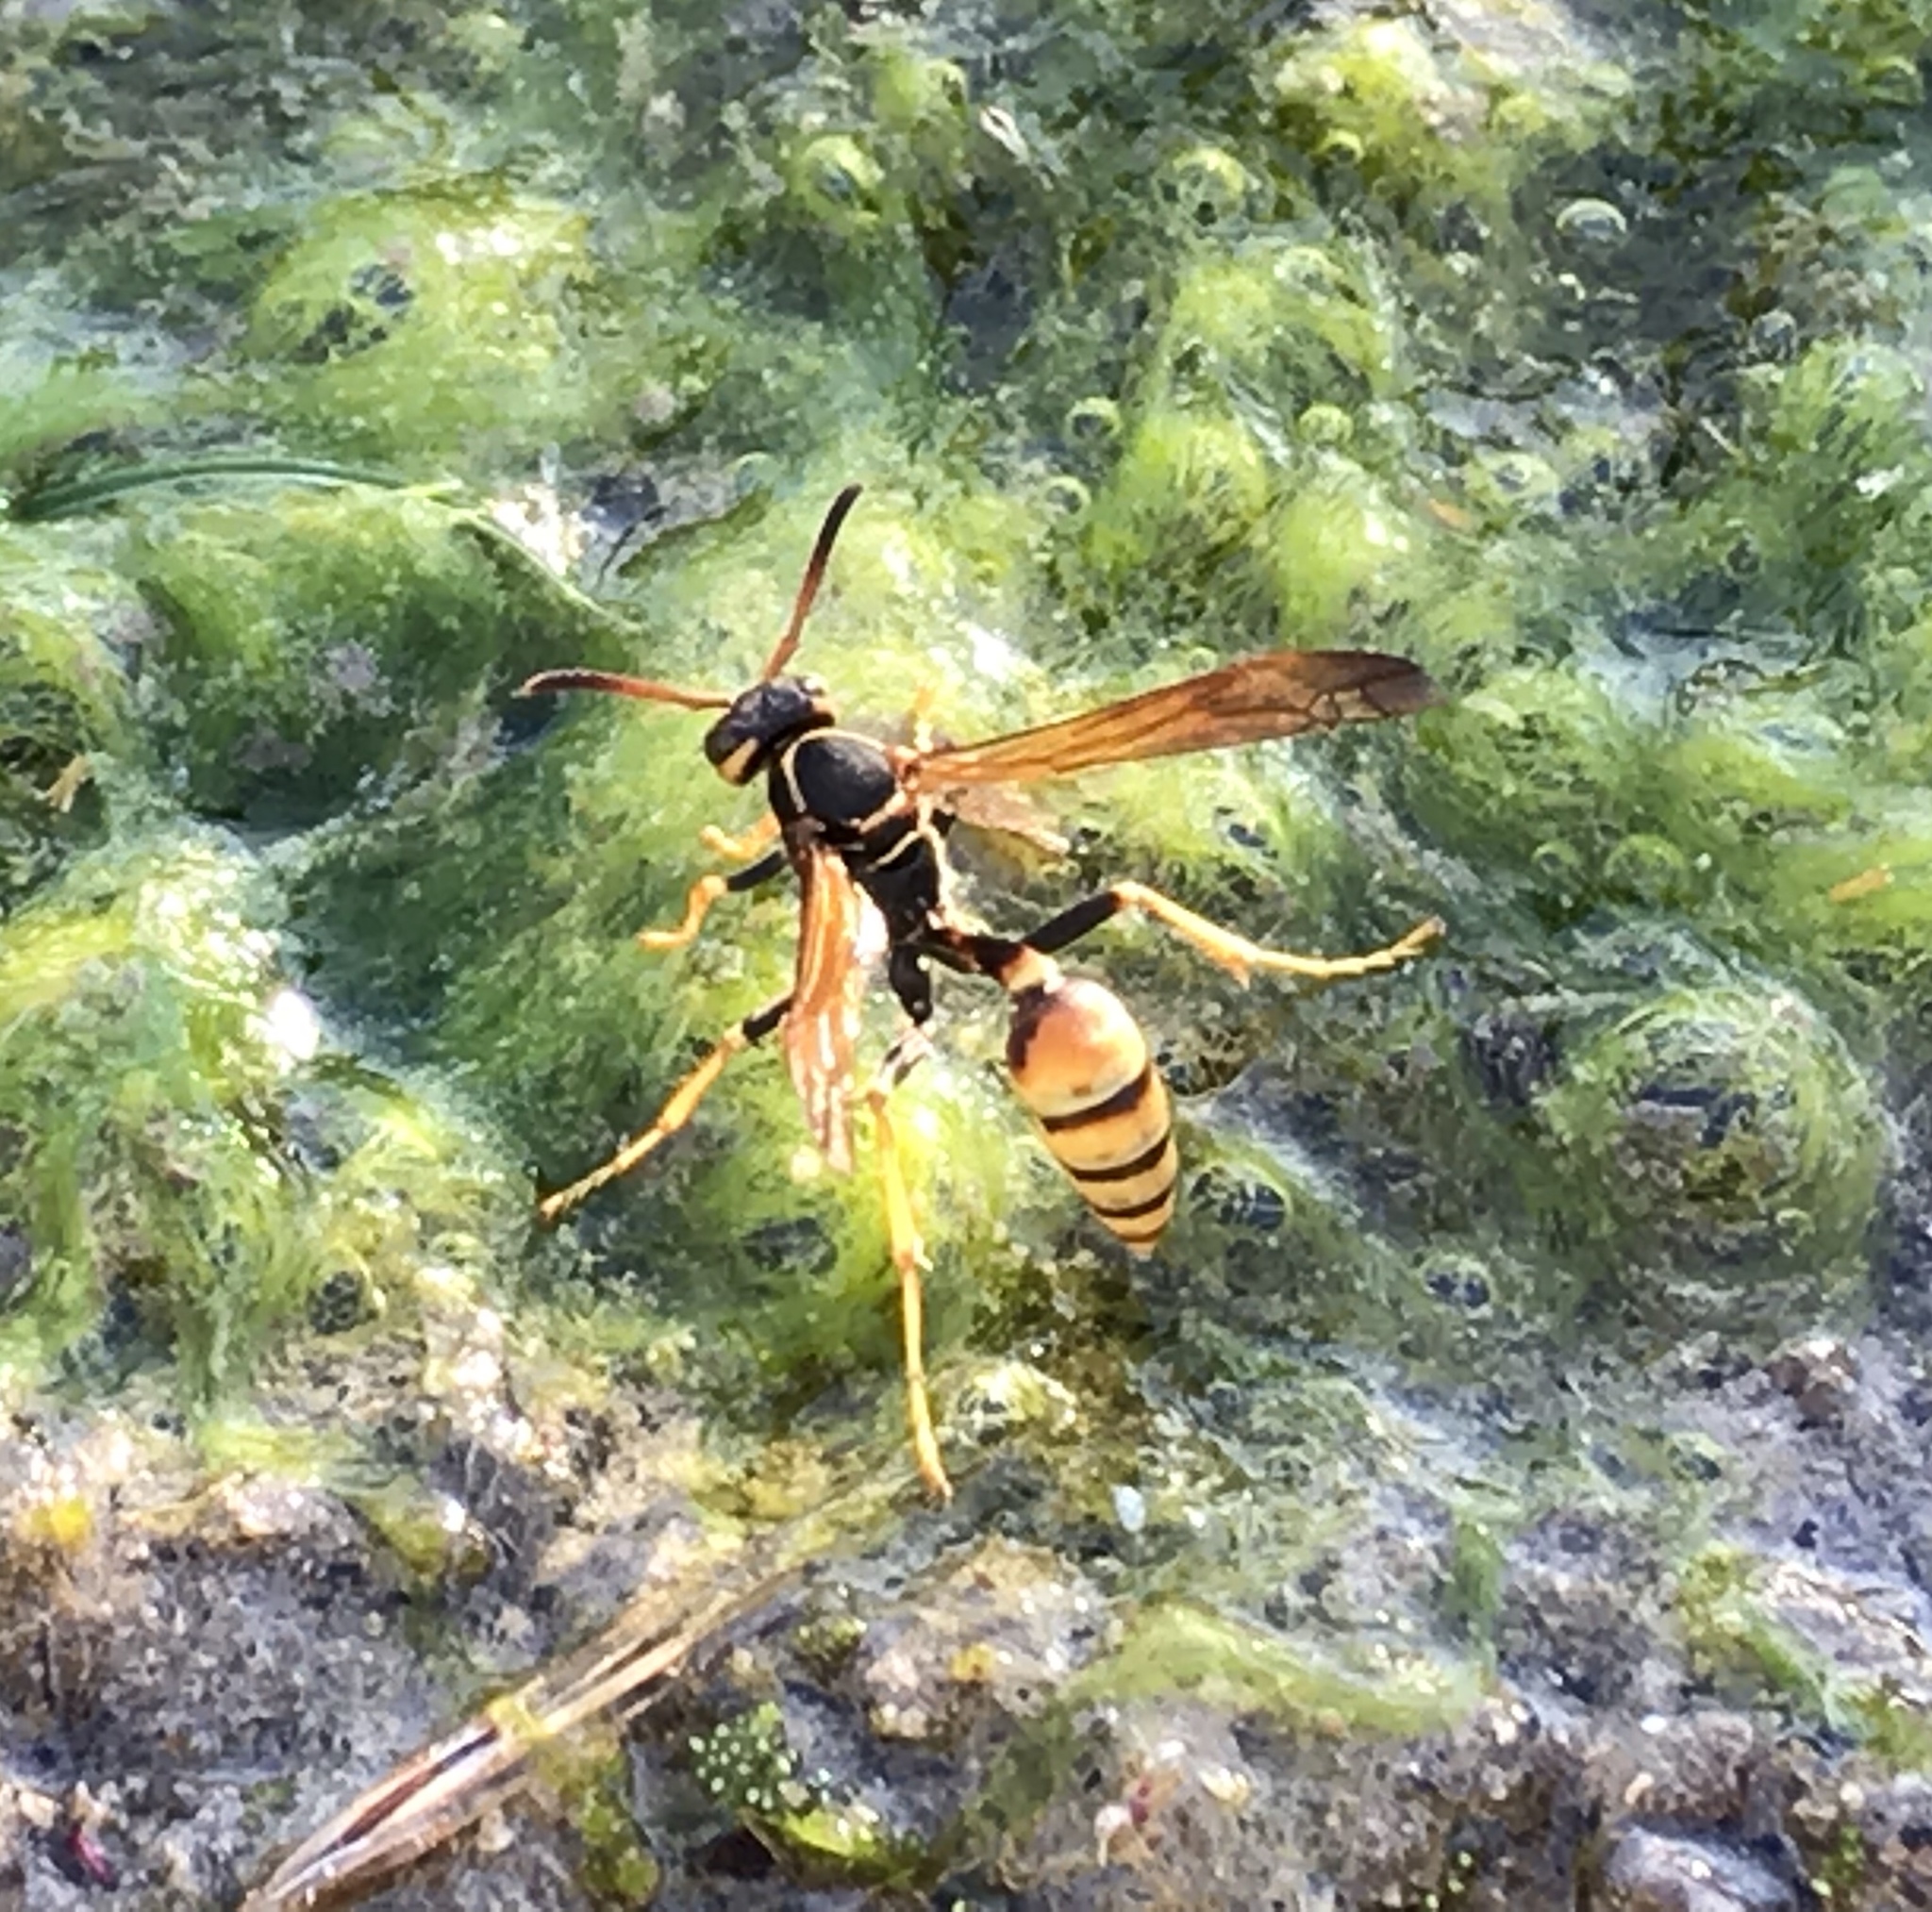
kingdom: Animalia
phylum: Arthropoda
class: Insecta
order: Hymenoptera
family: Vespidae
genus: Mischocyttarus
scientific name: Mischocyttarus flavitarsis
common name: Wasp
